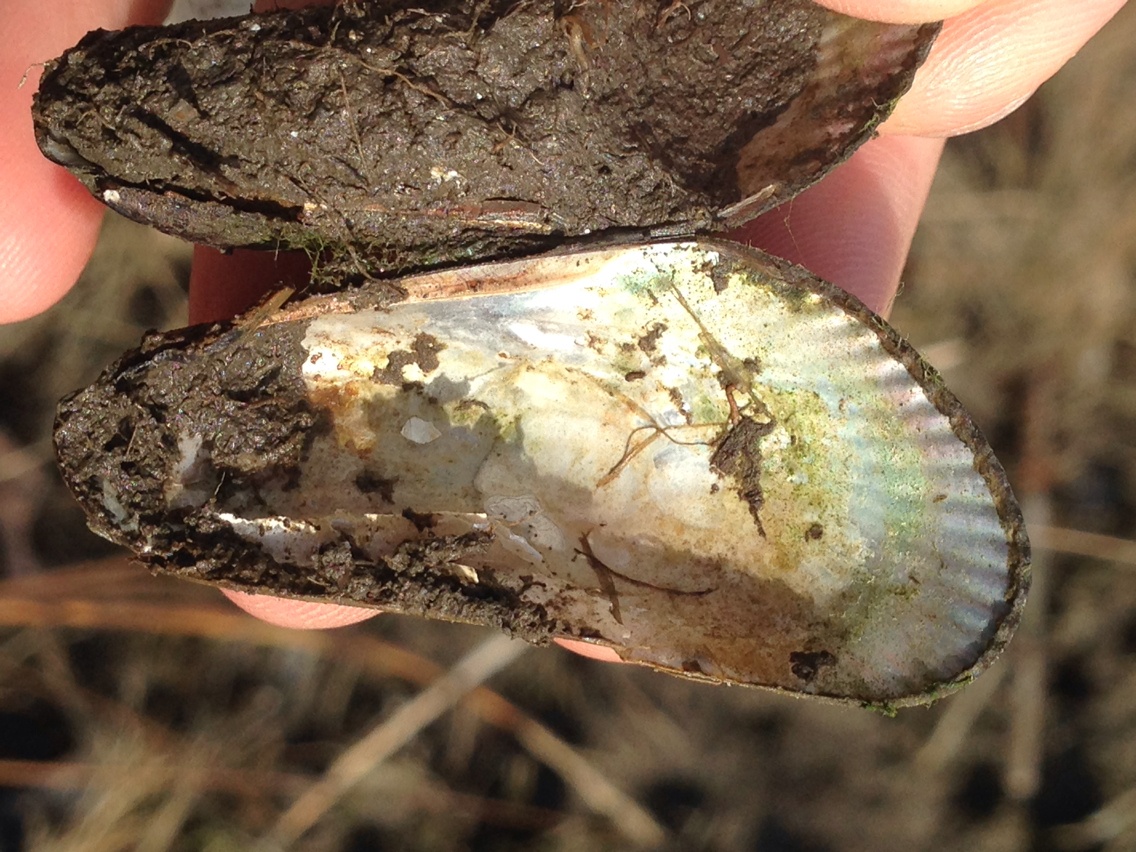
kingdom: Animalia
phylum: Mollusca
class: Bivalvia
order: Mytilida
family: Mytilidae
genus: Geukensia
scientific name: Geukensia demissa
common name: Ribbed mussel
